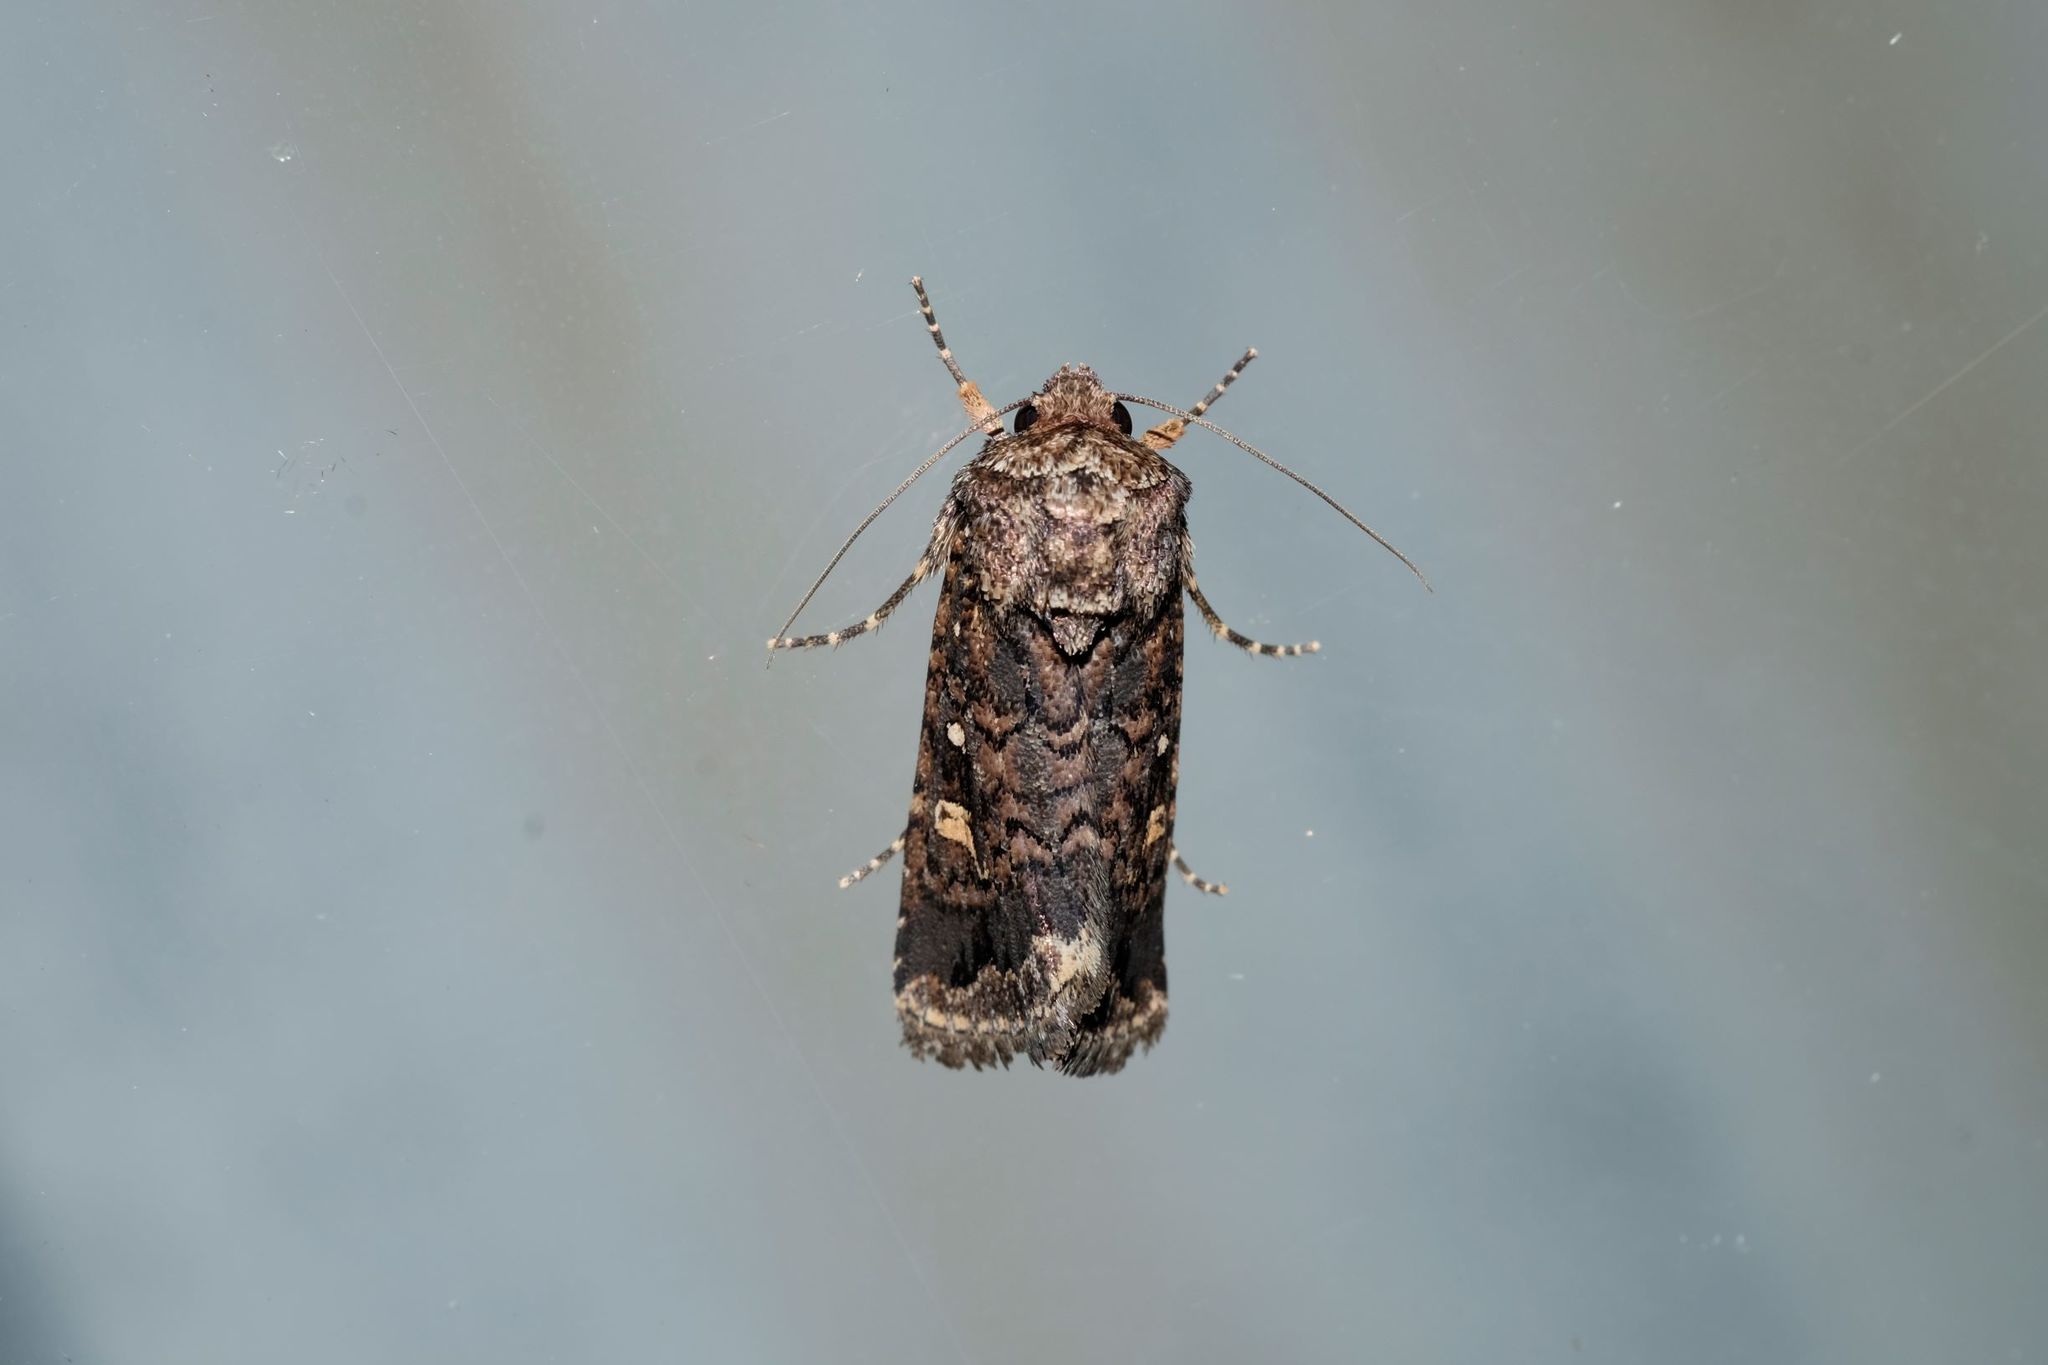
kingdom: Animalia
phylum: Arthropoda
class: Insecta
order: Lepidoptera
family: Noctuidae
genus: Proteuxoa
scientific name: Proteuxoa marginalis
